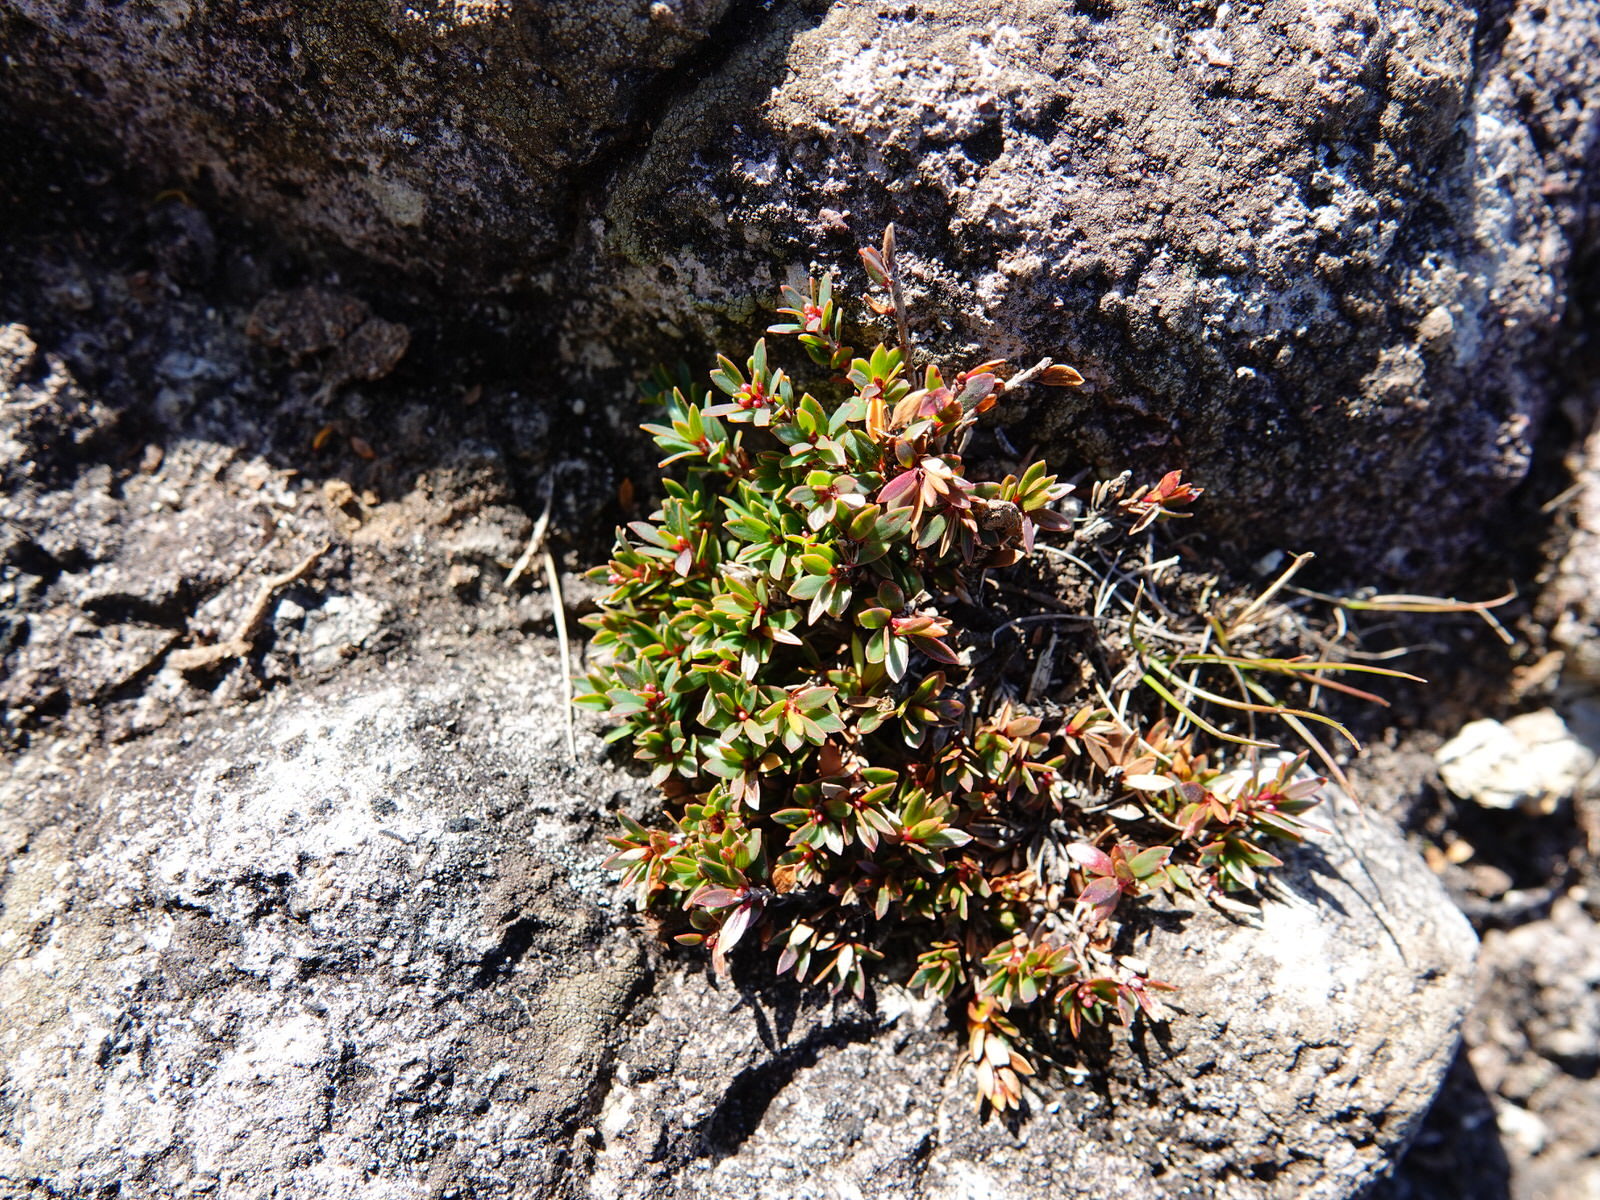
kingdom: Plantae
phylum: Tracheophyta
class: Magnoliopsida
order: Ericales
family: Ericaceae
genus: Pentachondra
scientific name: Pentachondra pumila
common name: Carpet-heath
